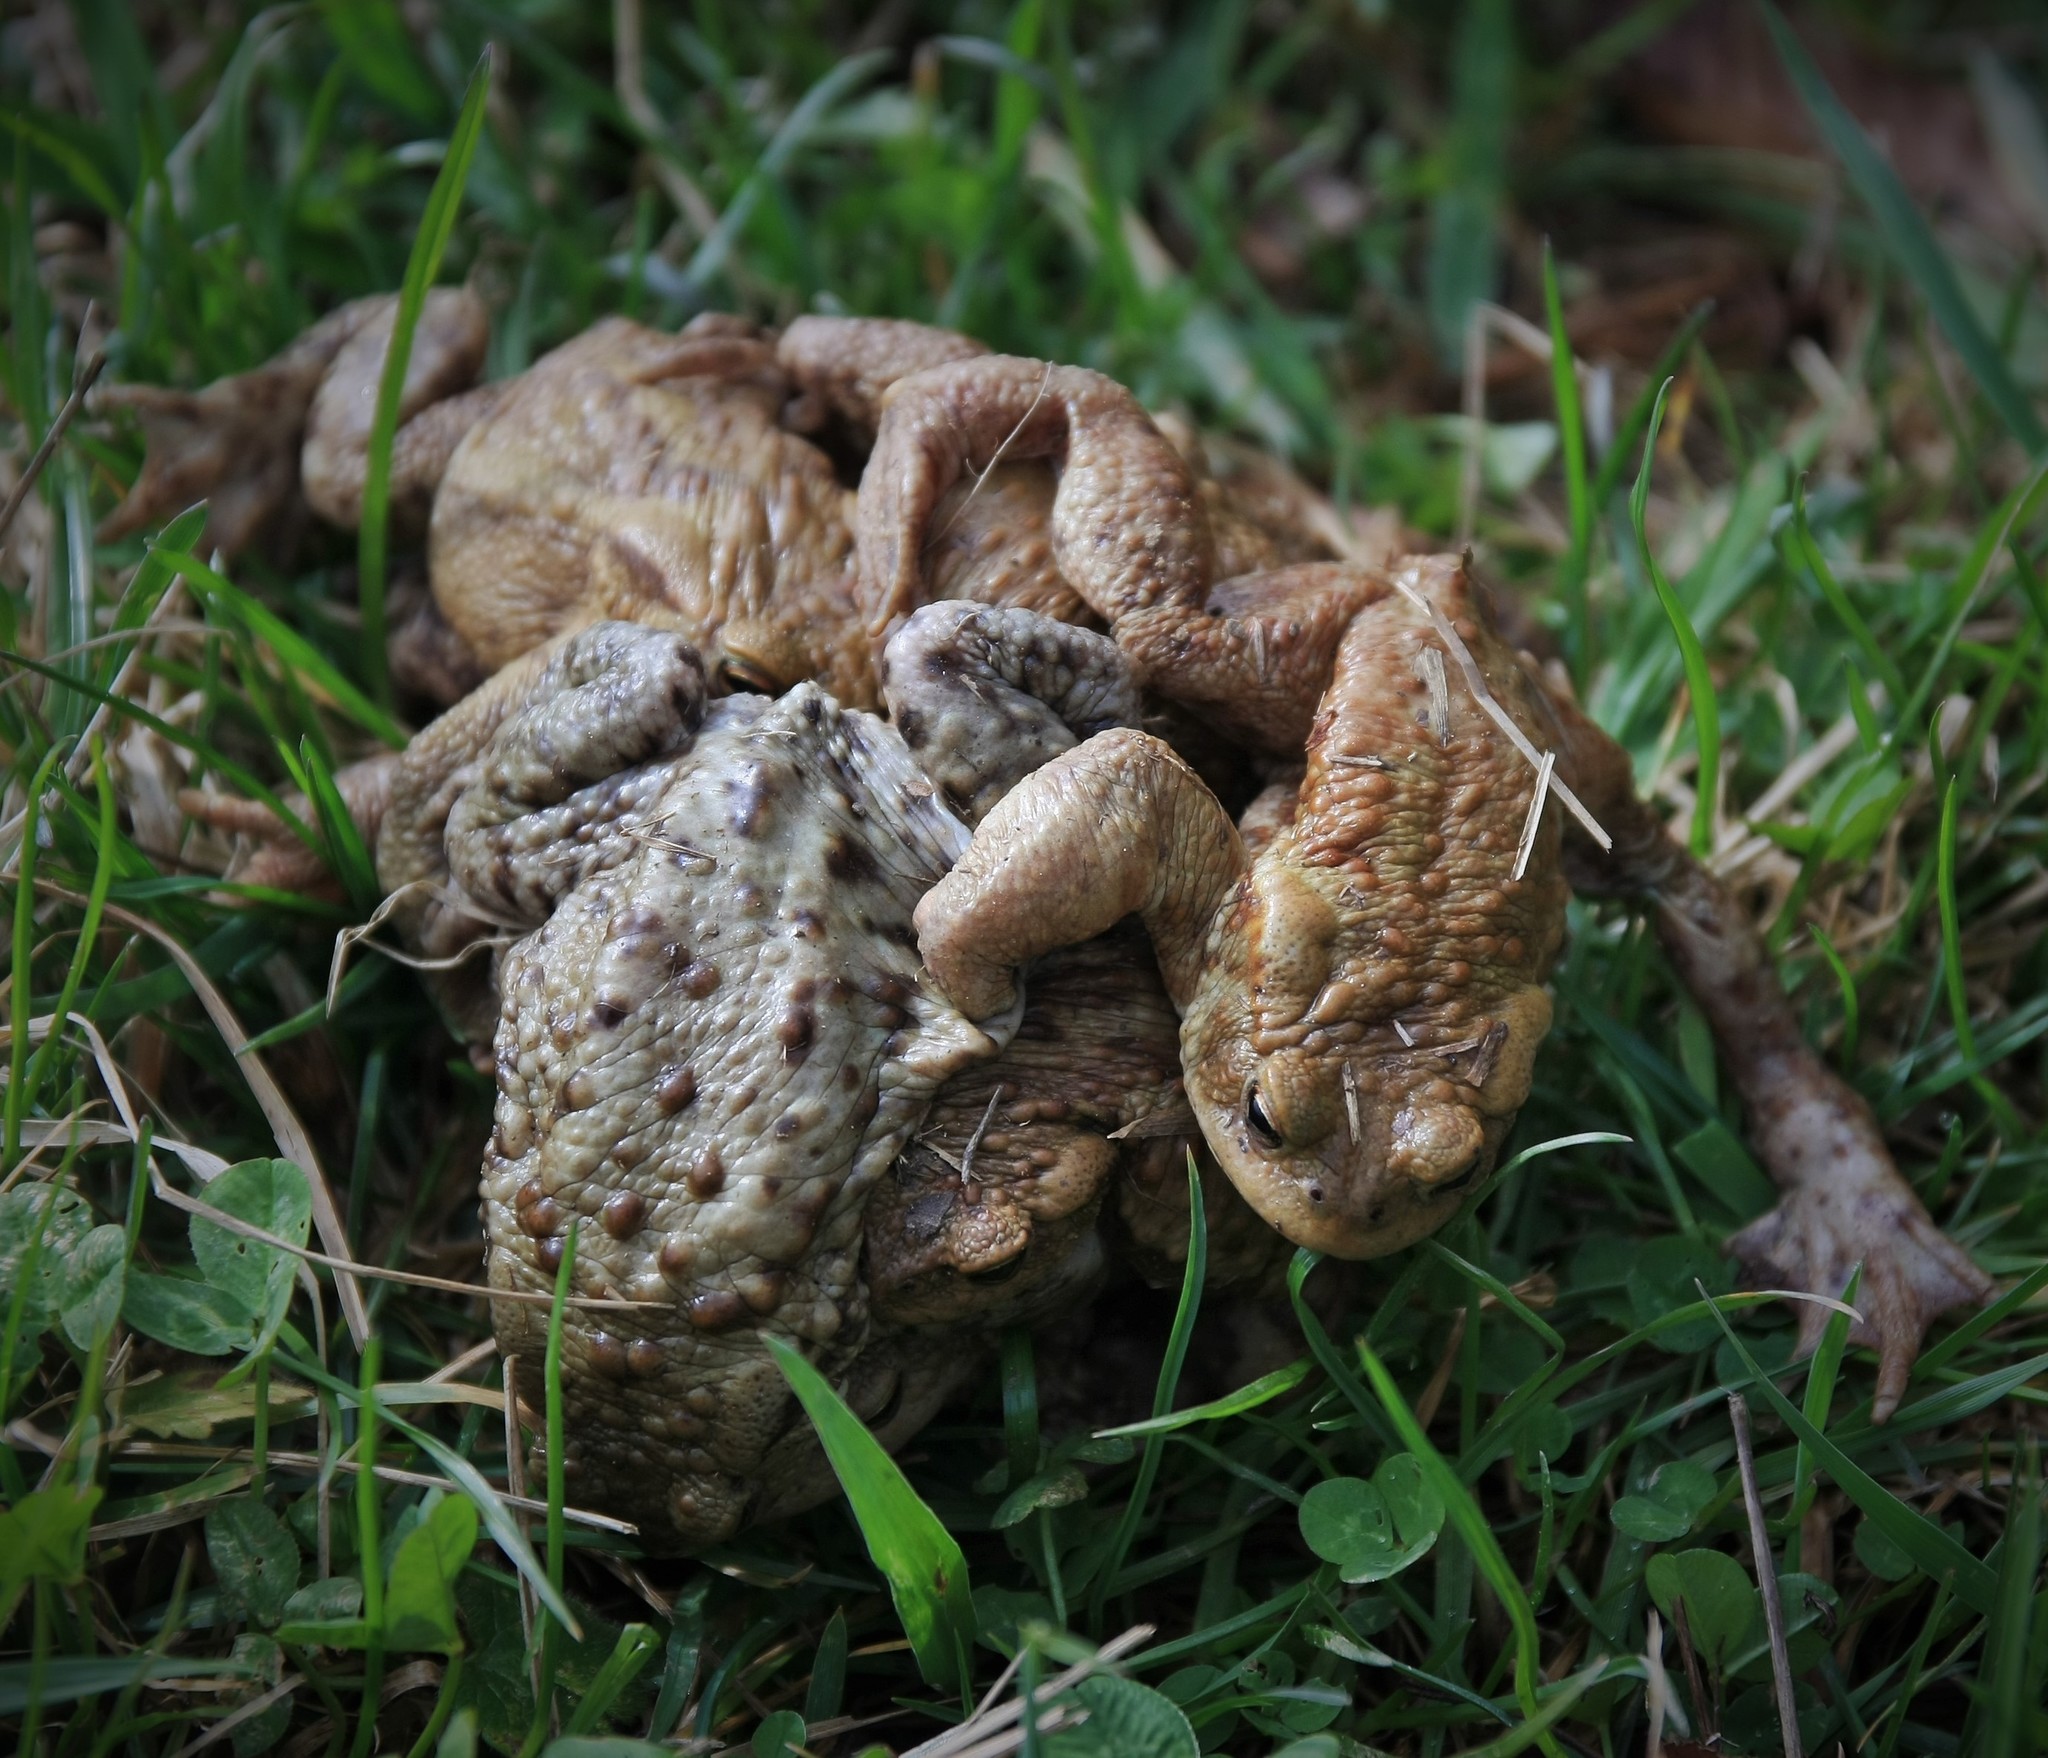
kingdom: Animalia
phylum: Chordata
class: Amphibia
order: Anura
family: Bufonidae
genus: Bufo
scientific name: Bufo bufo
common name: Common toad
